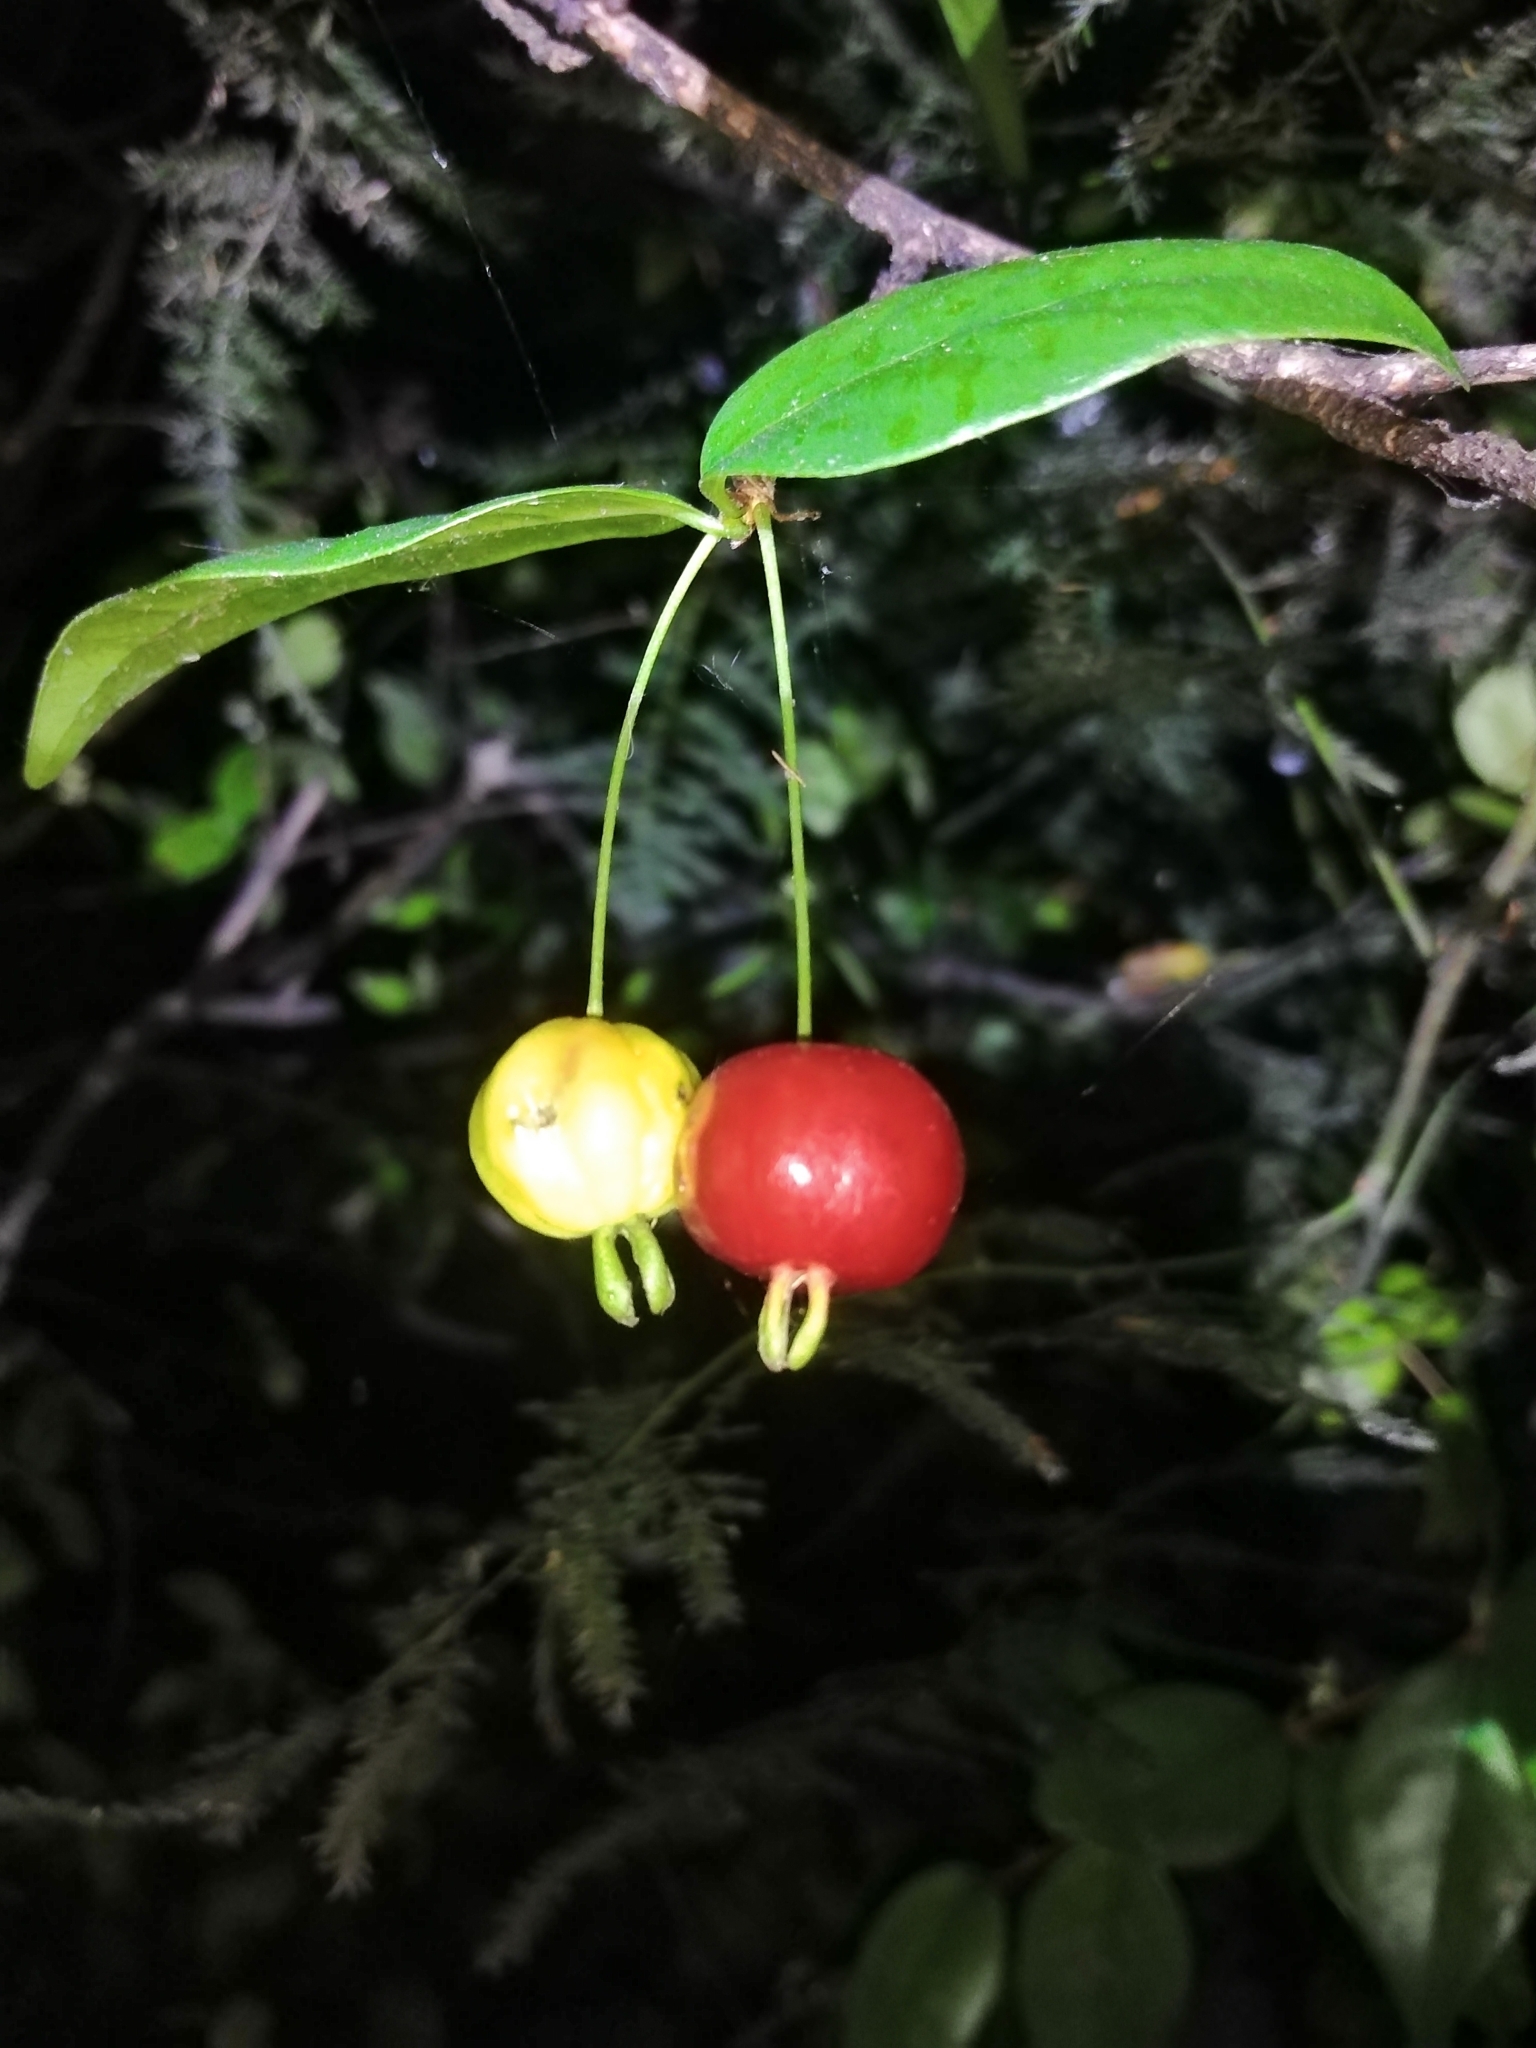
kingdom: Plantae
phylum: Tracheophyta
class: Magnoliopsida
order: Myrtales
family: Myrtaceae
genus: Eugenia
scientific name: Eugenia uniflora
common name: Surinam cherry
